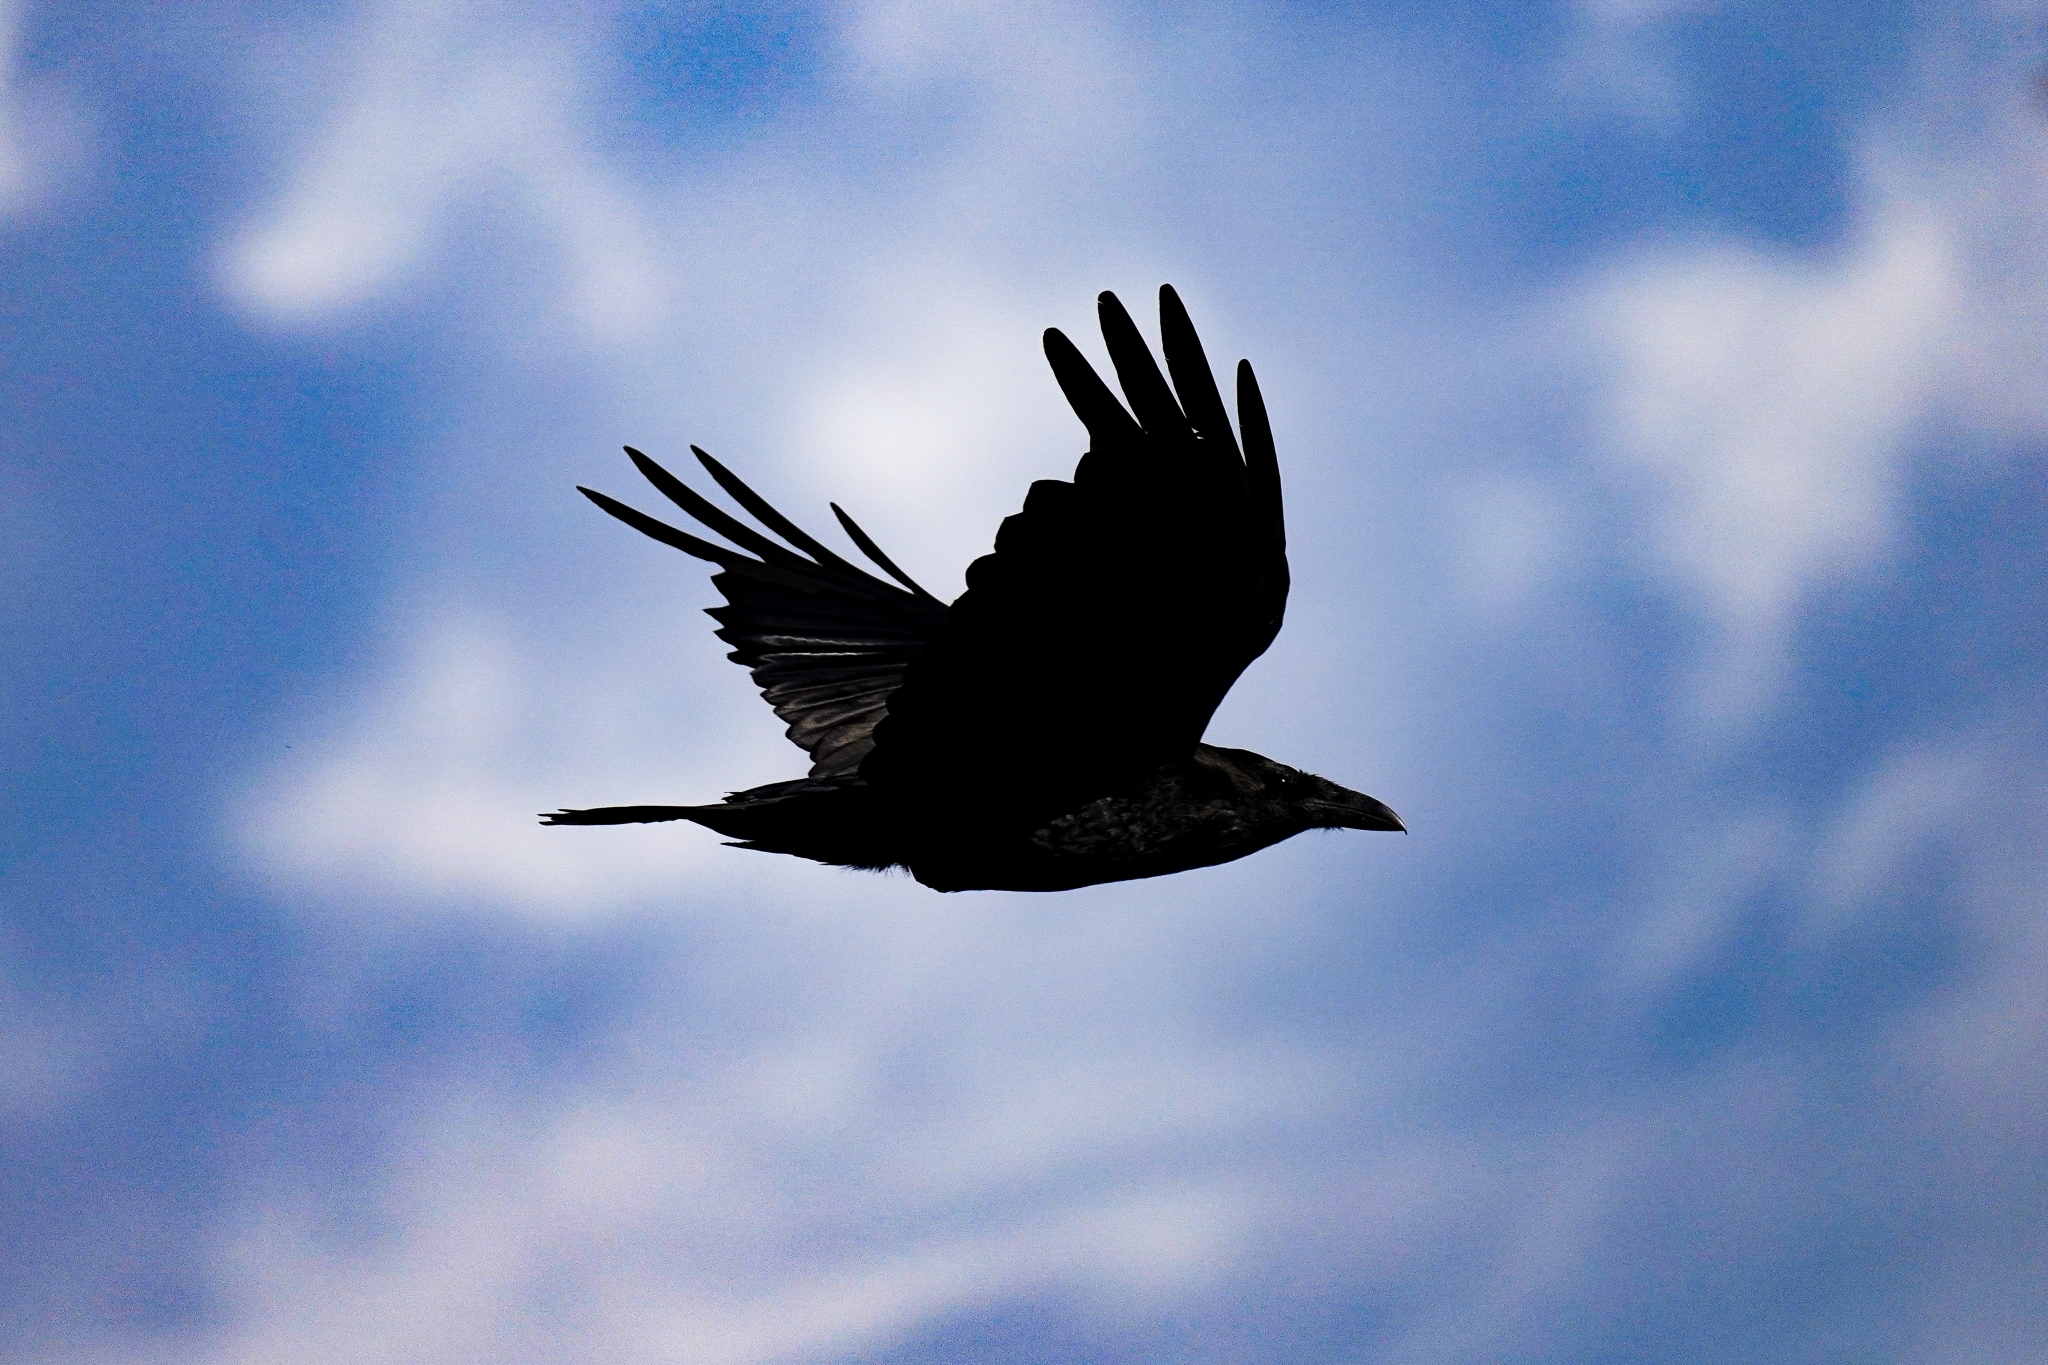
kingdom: Animalia
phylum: Chordata
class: Aves
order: Passeriformes
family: Corvidae
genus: Corvus
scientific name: Corvus corax
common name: Common raven
